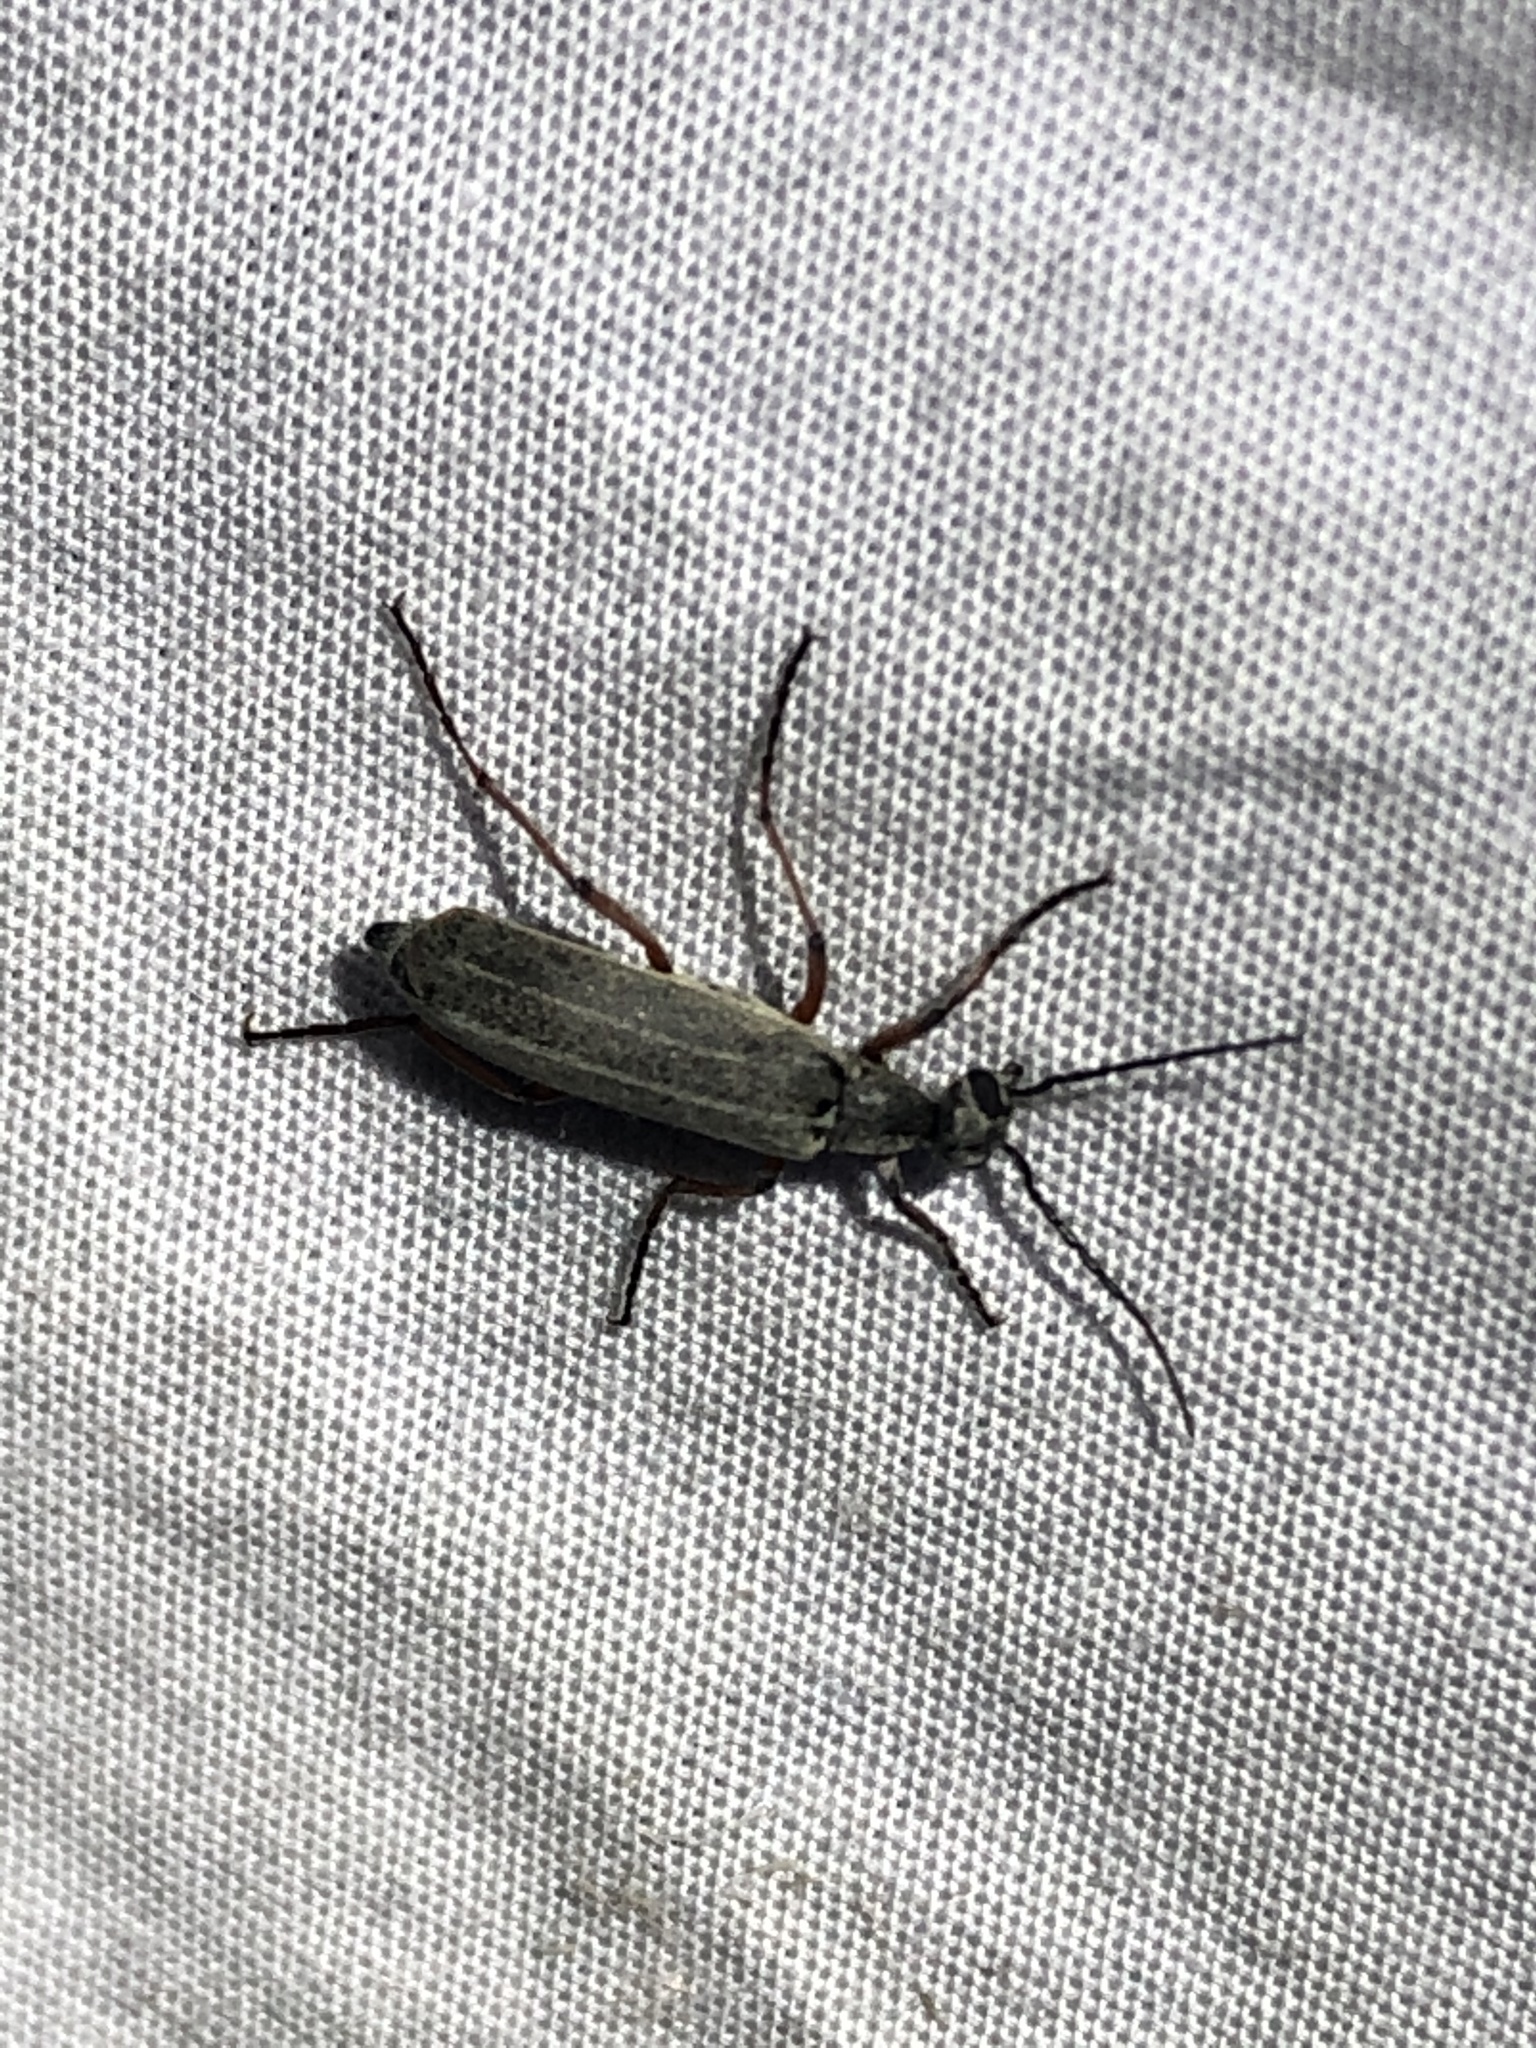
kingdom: Animalia
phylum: Arthropoda
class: Insecta
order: Coleoptera
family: Meloidae
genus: Epicauta
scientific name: Epicauta hirsutipubescens
